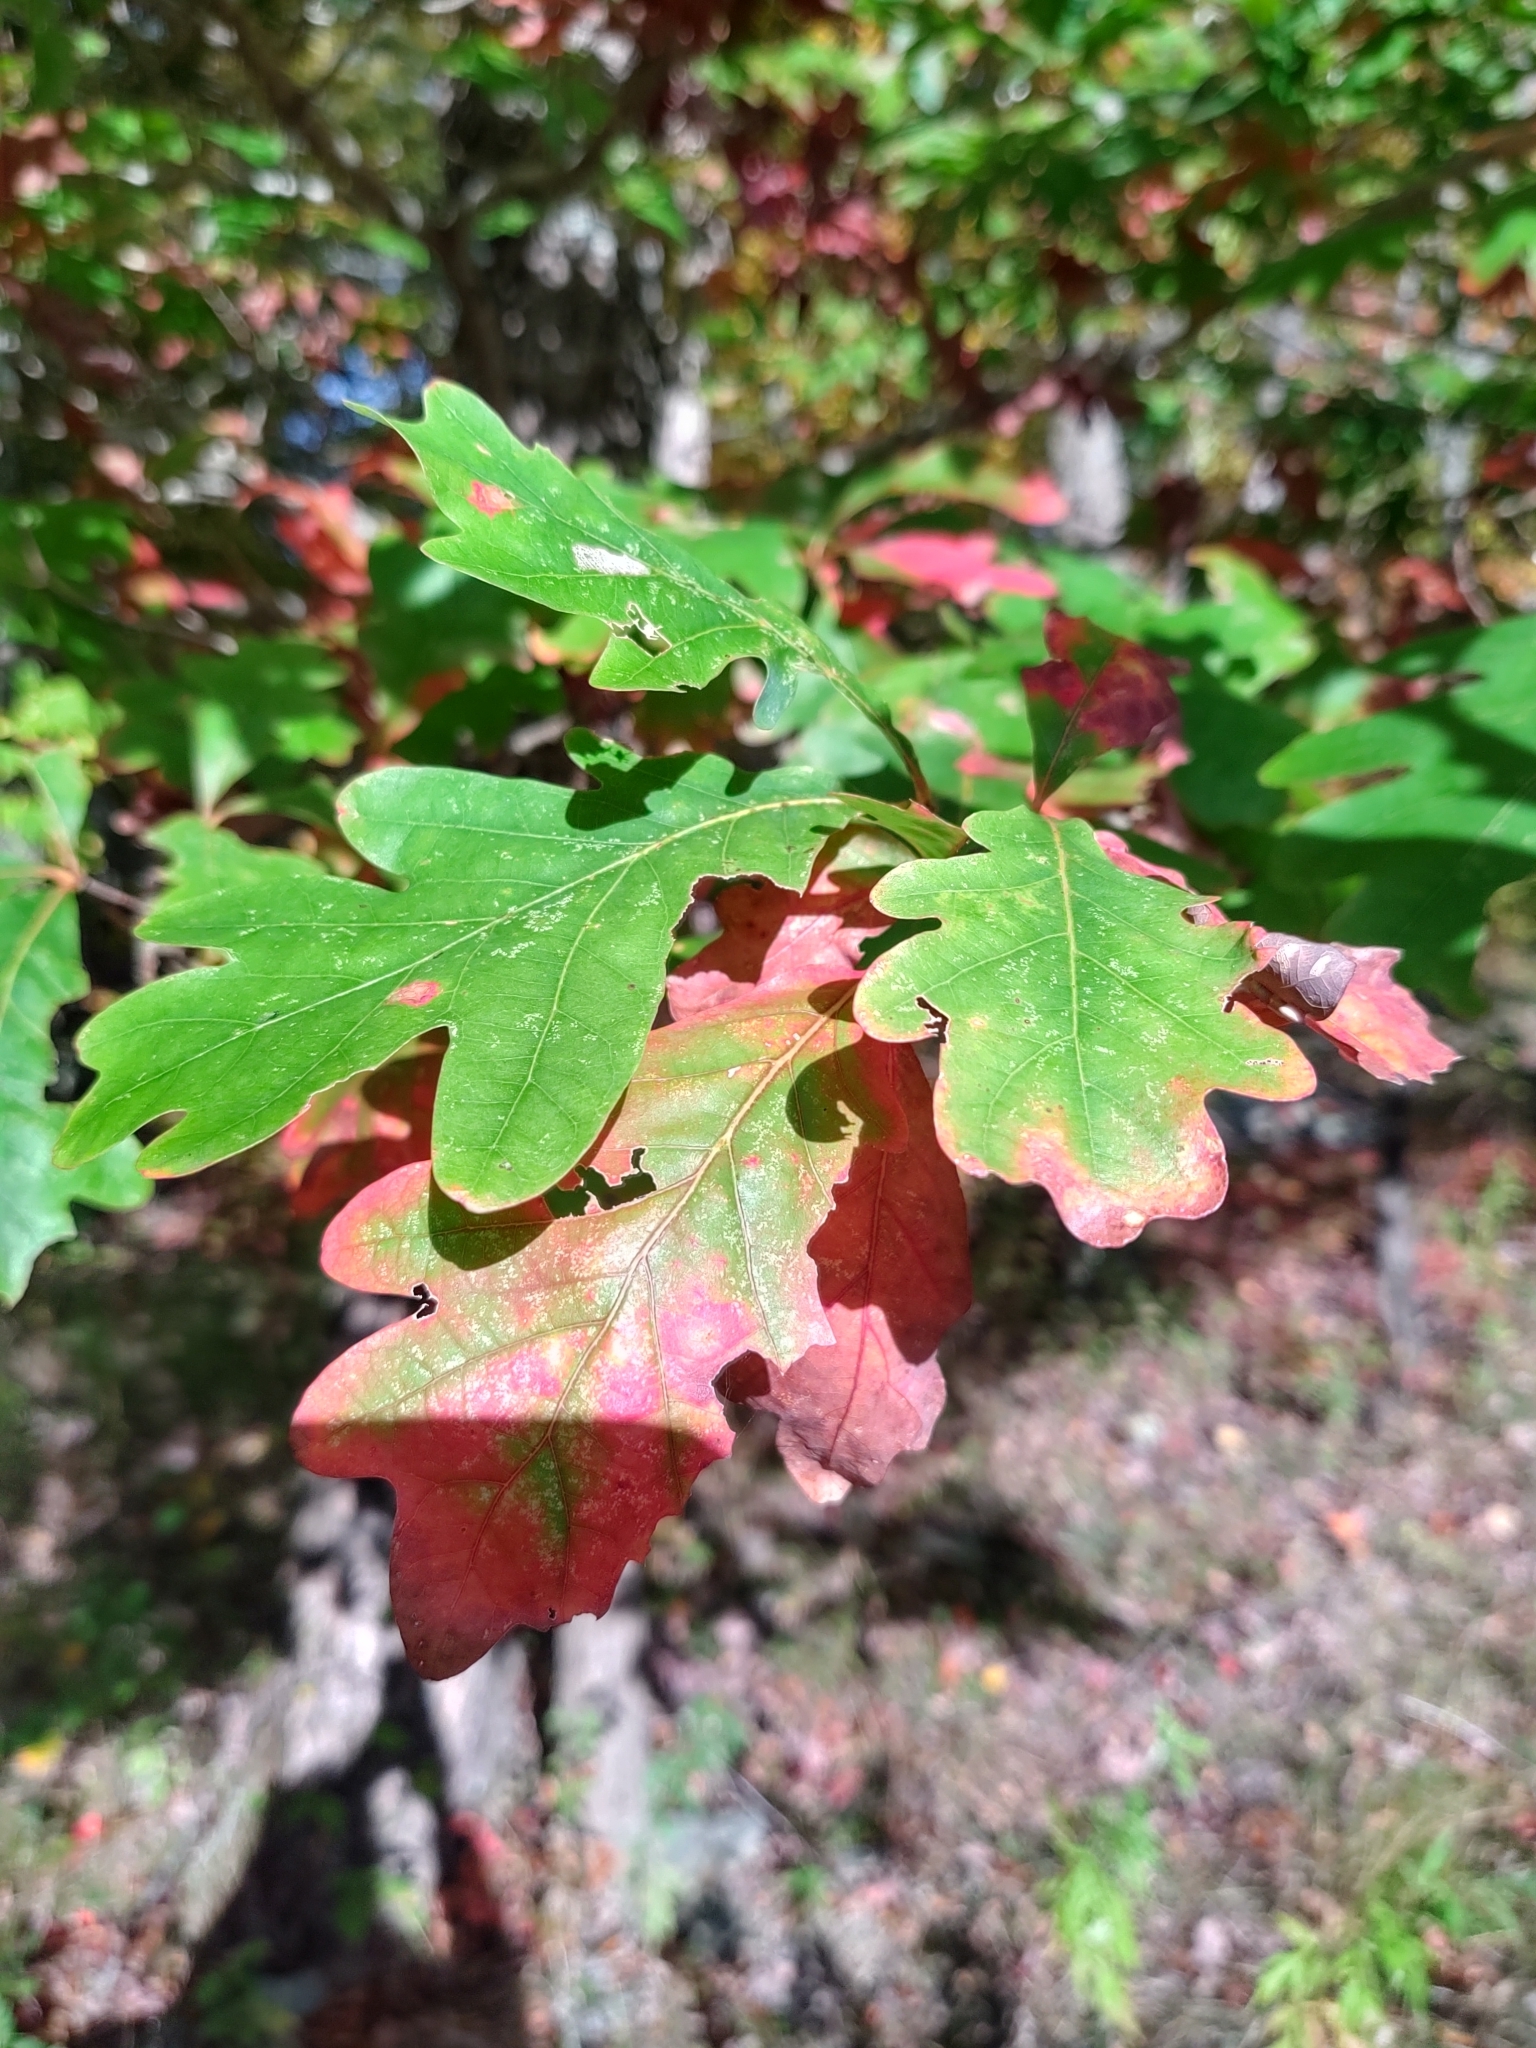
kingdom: Plantae
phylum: Tracheophyta
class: Magnoliopsida
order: Fagales
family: Fagaceae
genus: Quercus
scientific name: Quercus alba
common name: White oak
